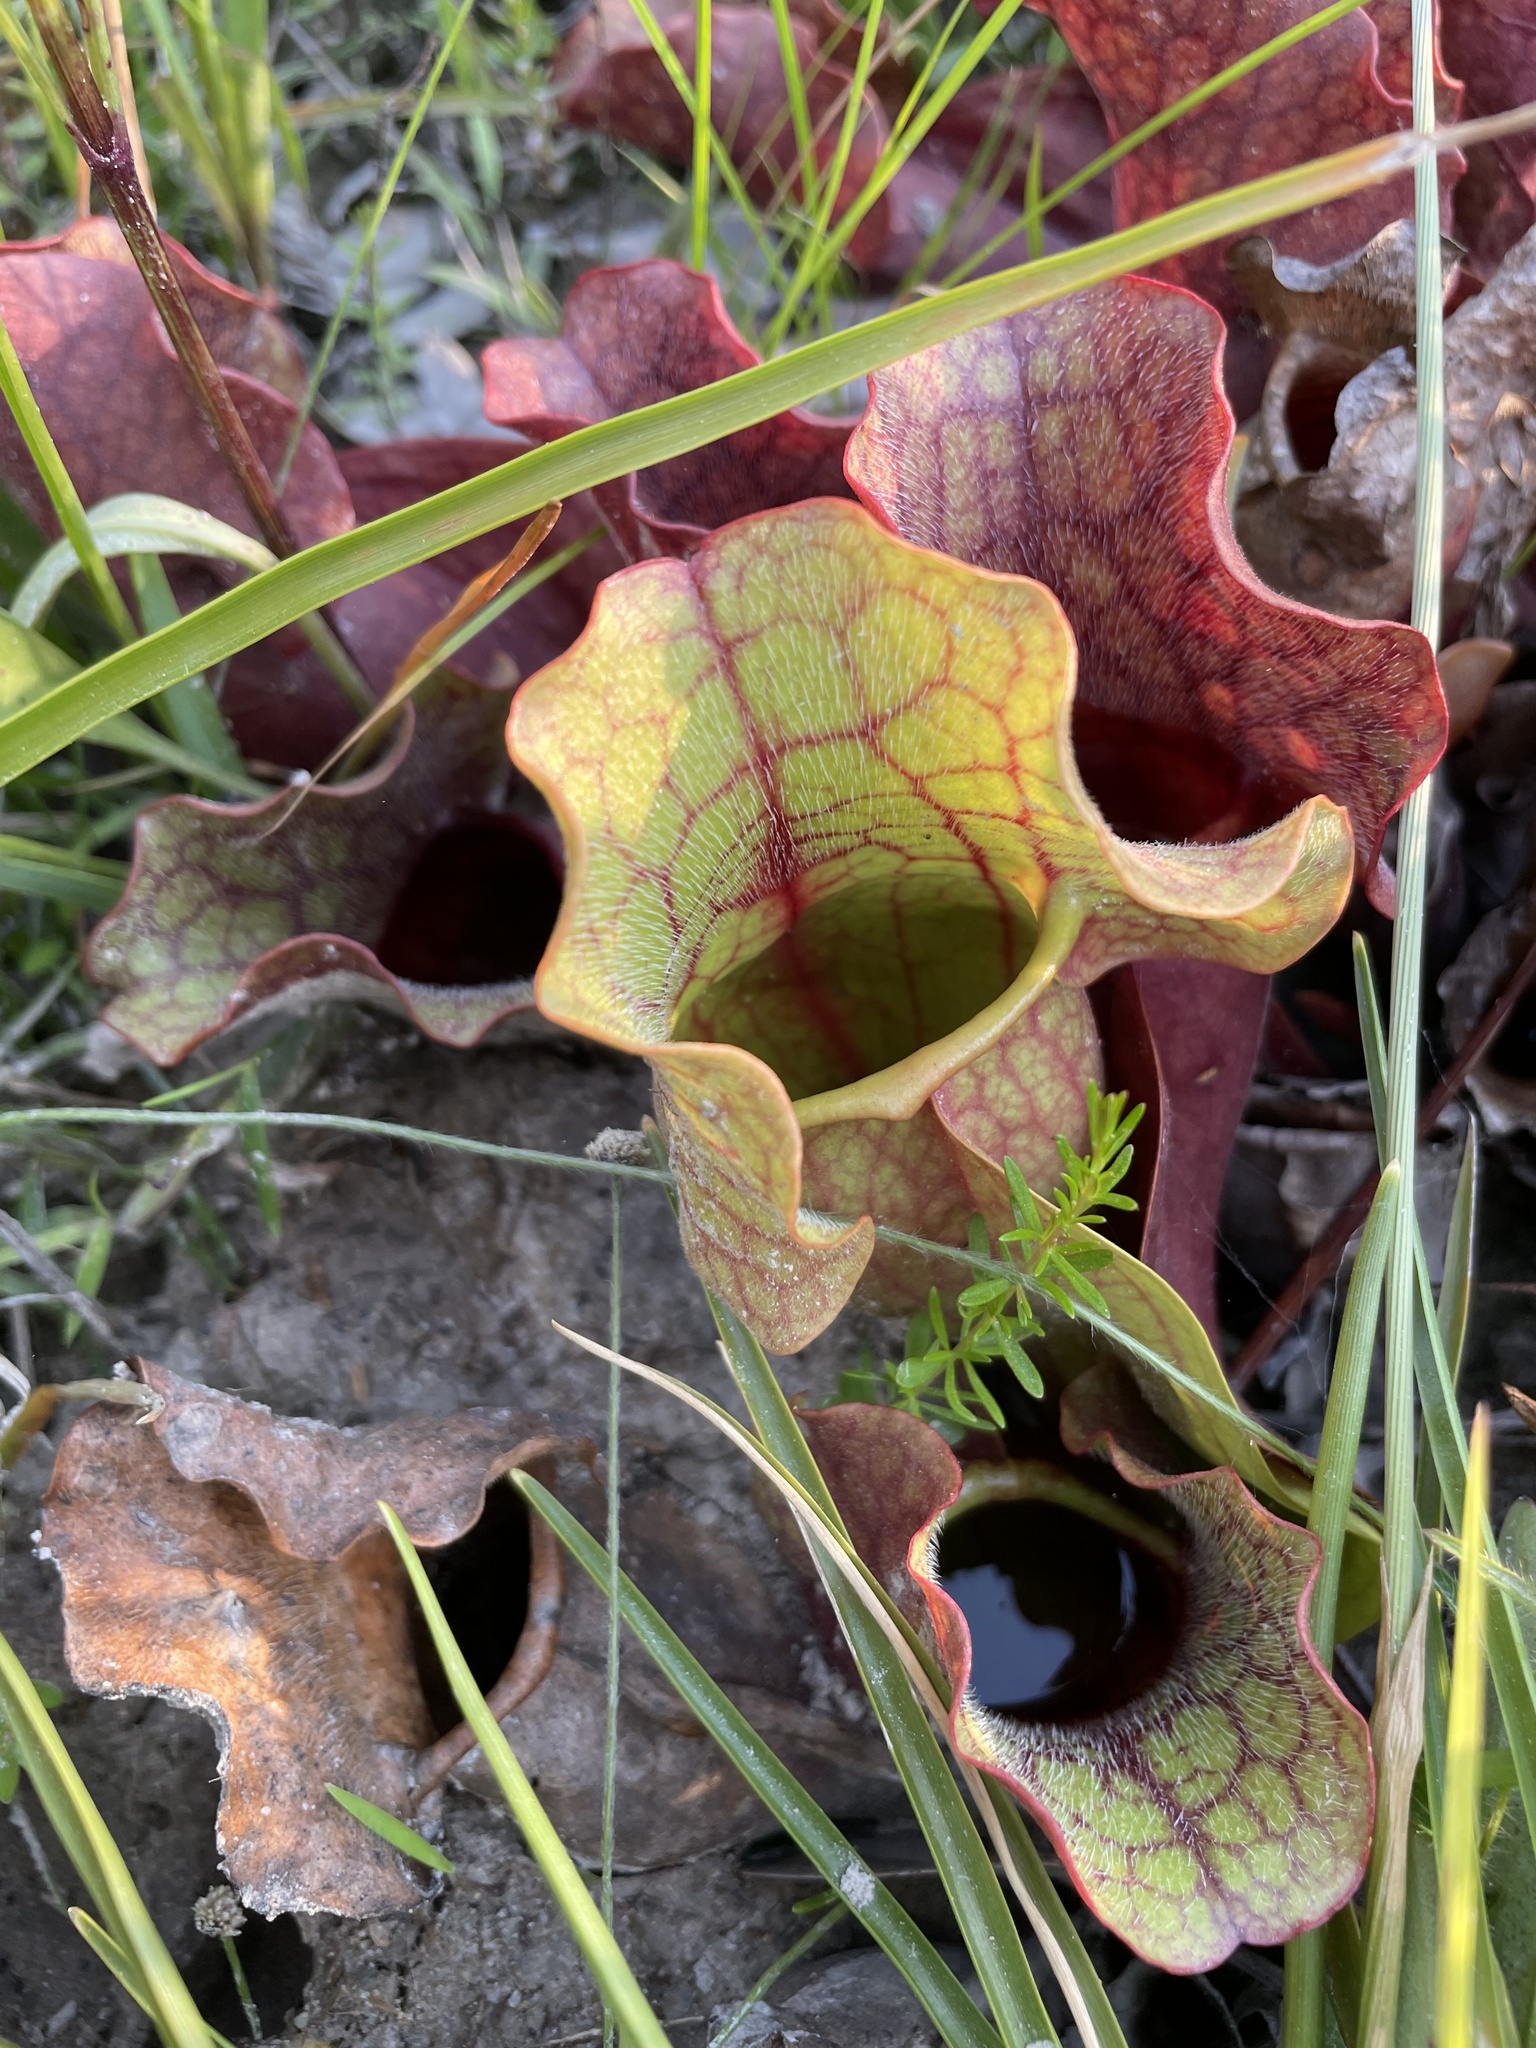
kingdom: Plantae
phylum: Tracheophyta
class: Magnoliopsida
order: Ericales
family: Sarraceniaceae
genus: Sarracenia
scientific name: Sarracenia rosea
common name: Pink pitcherplant
